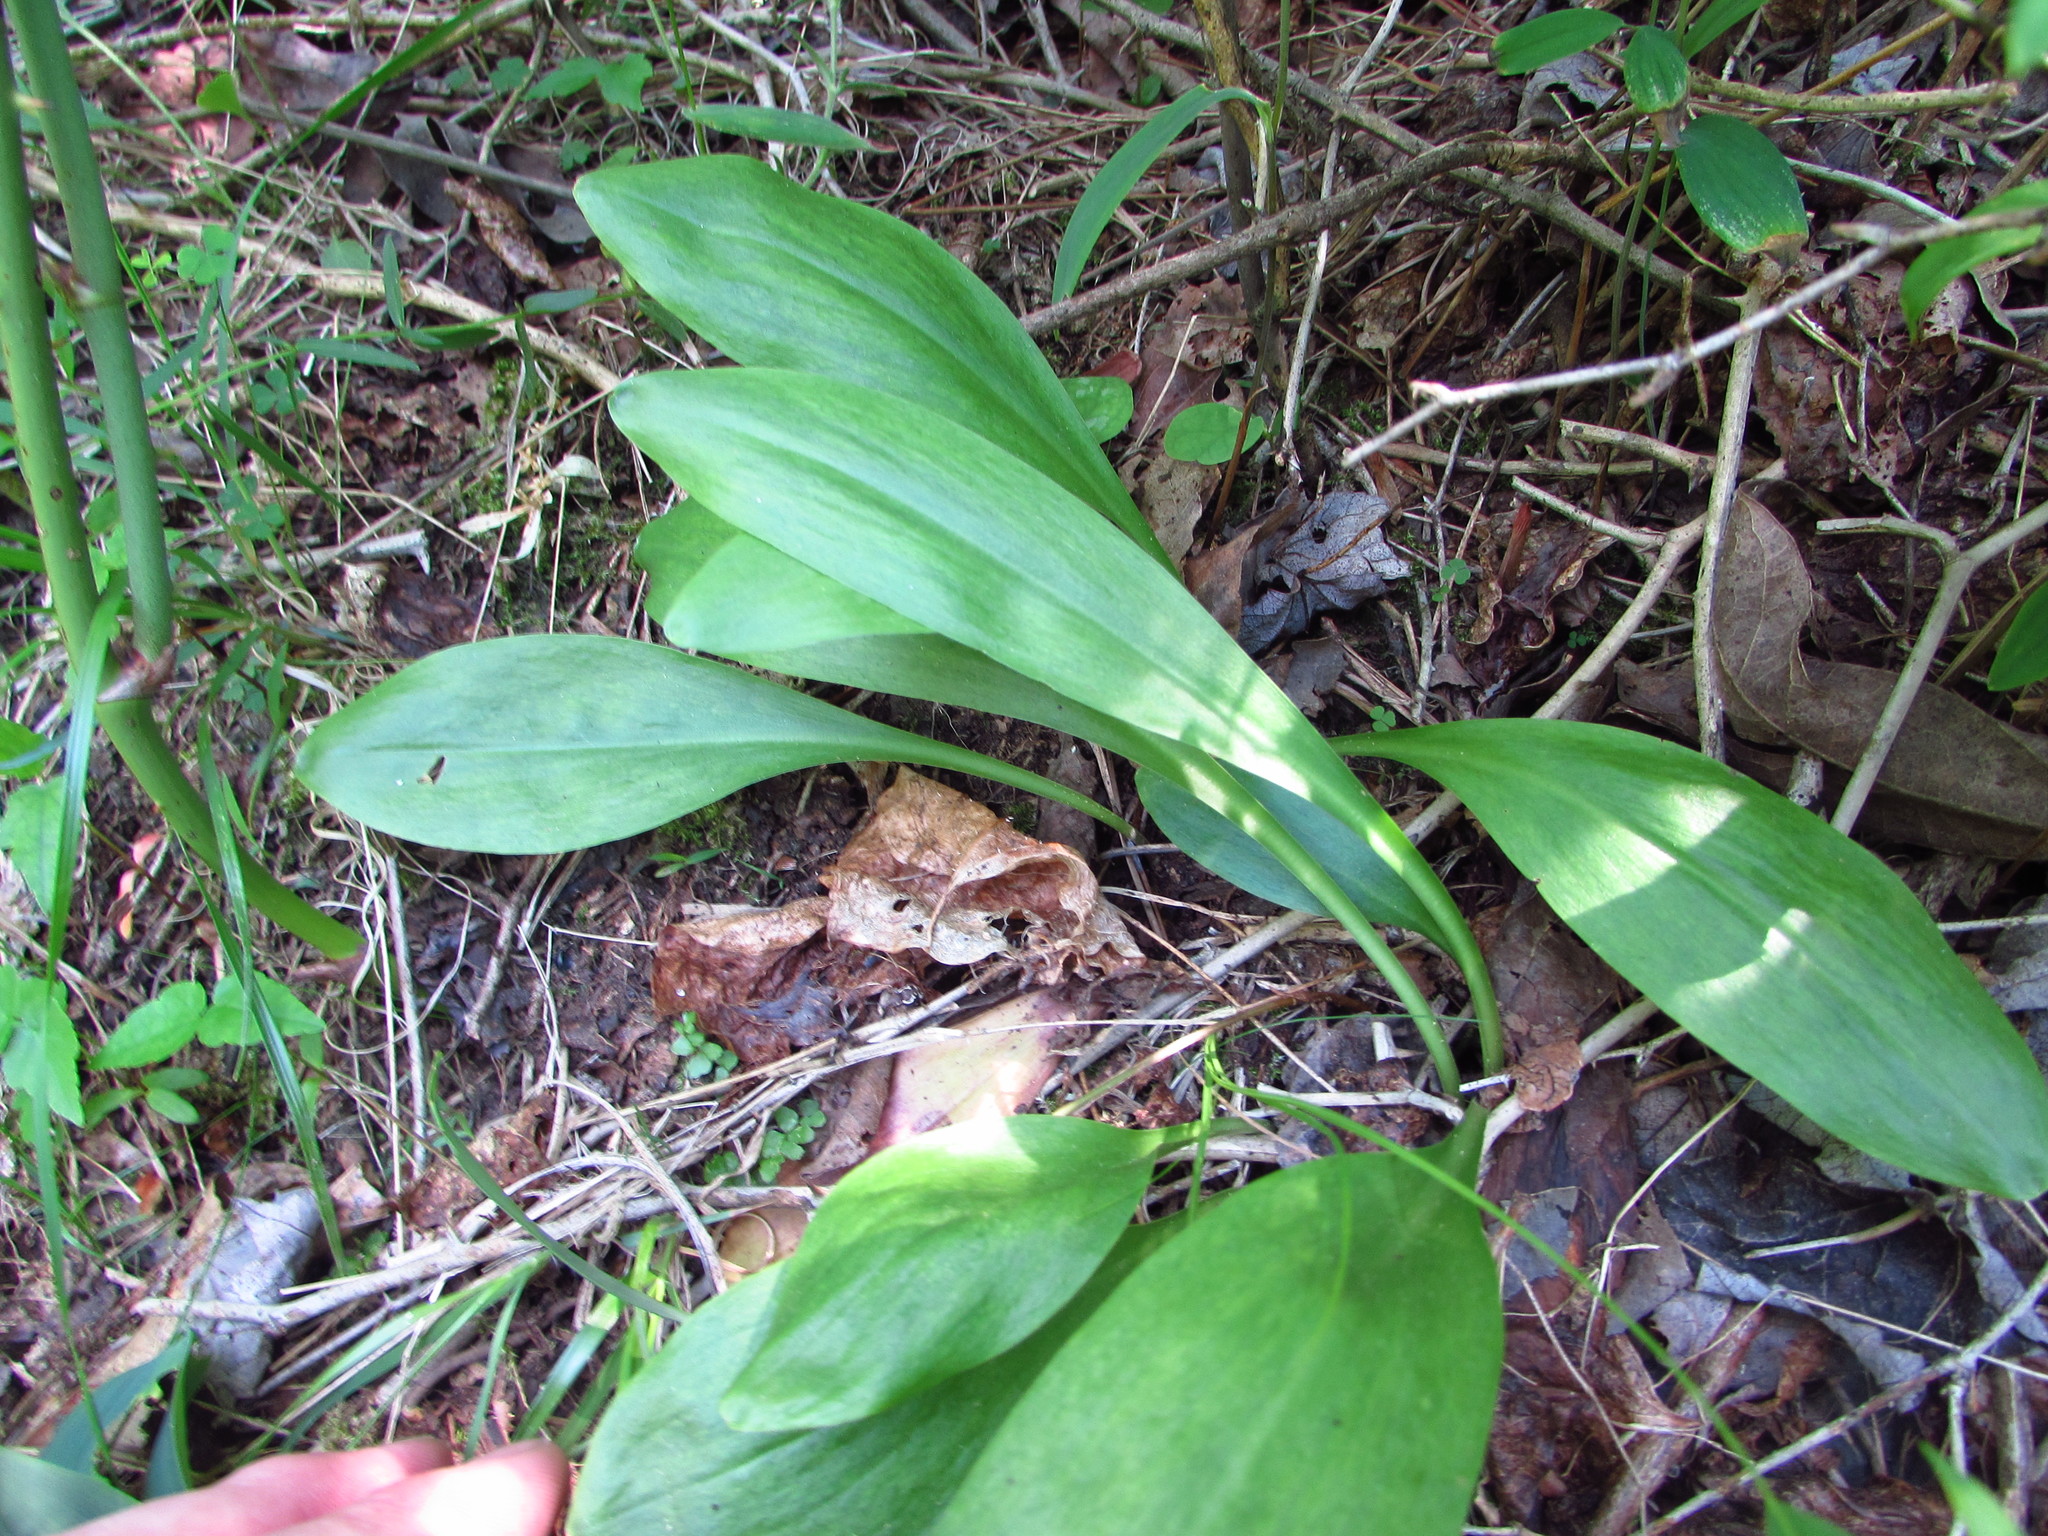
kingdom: Plantae
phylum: Tracheophyta
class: Liliopsida
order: Liliales
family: Melanthiaceae
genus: Chamaelirium
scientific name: Chamaelirium luteum
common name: Fairy-wand
